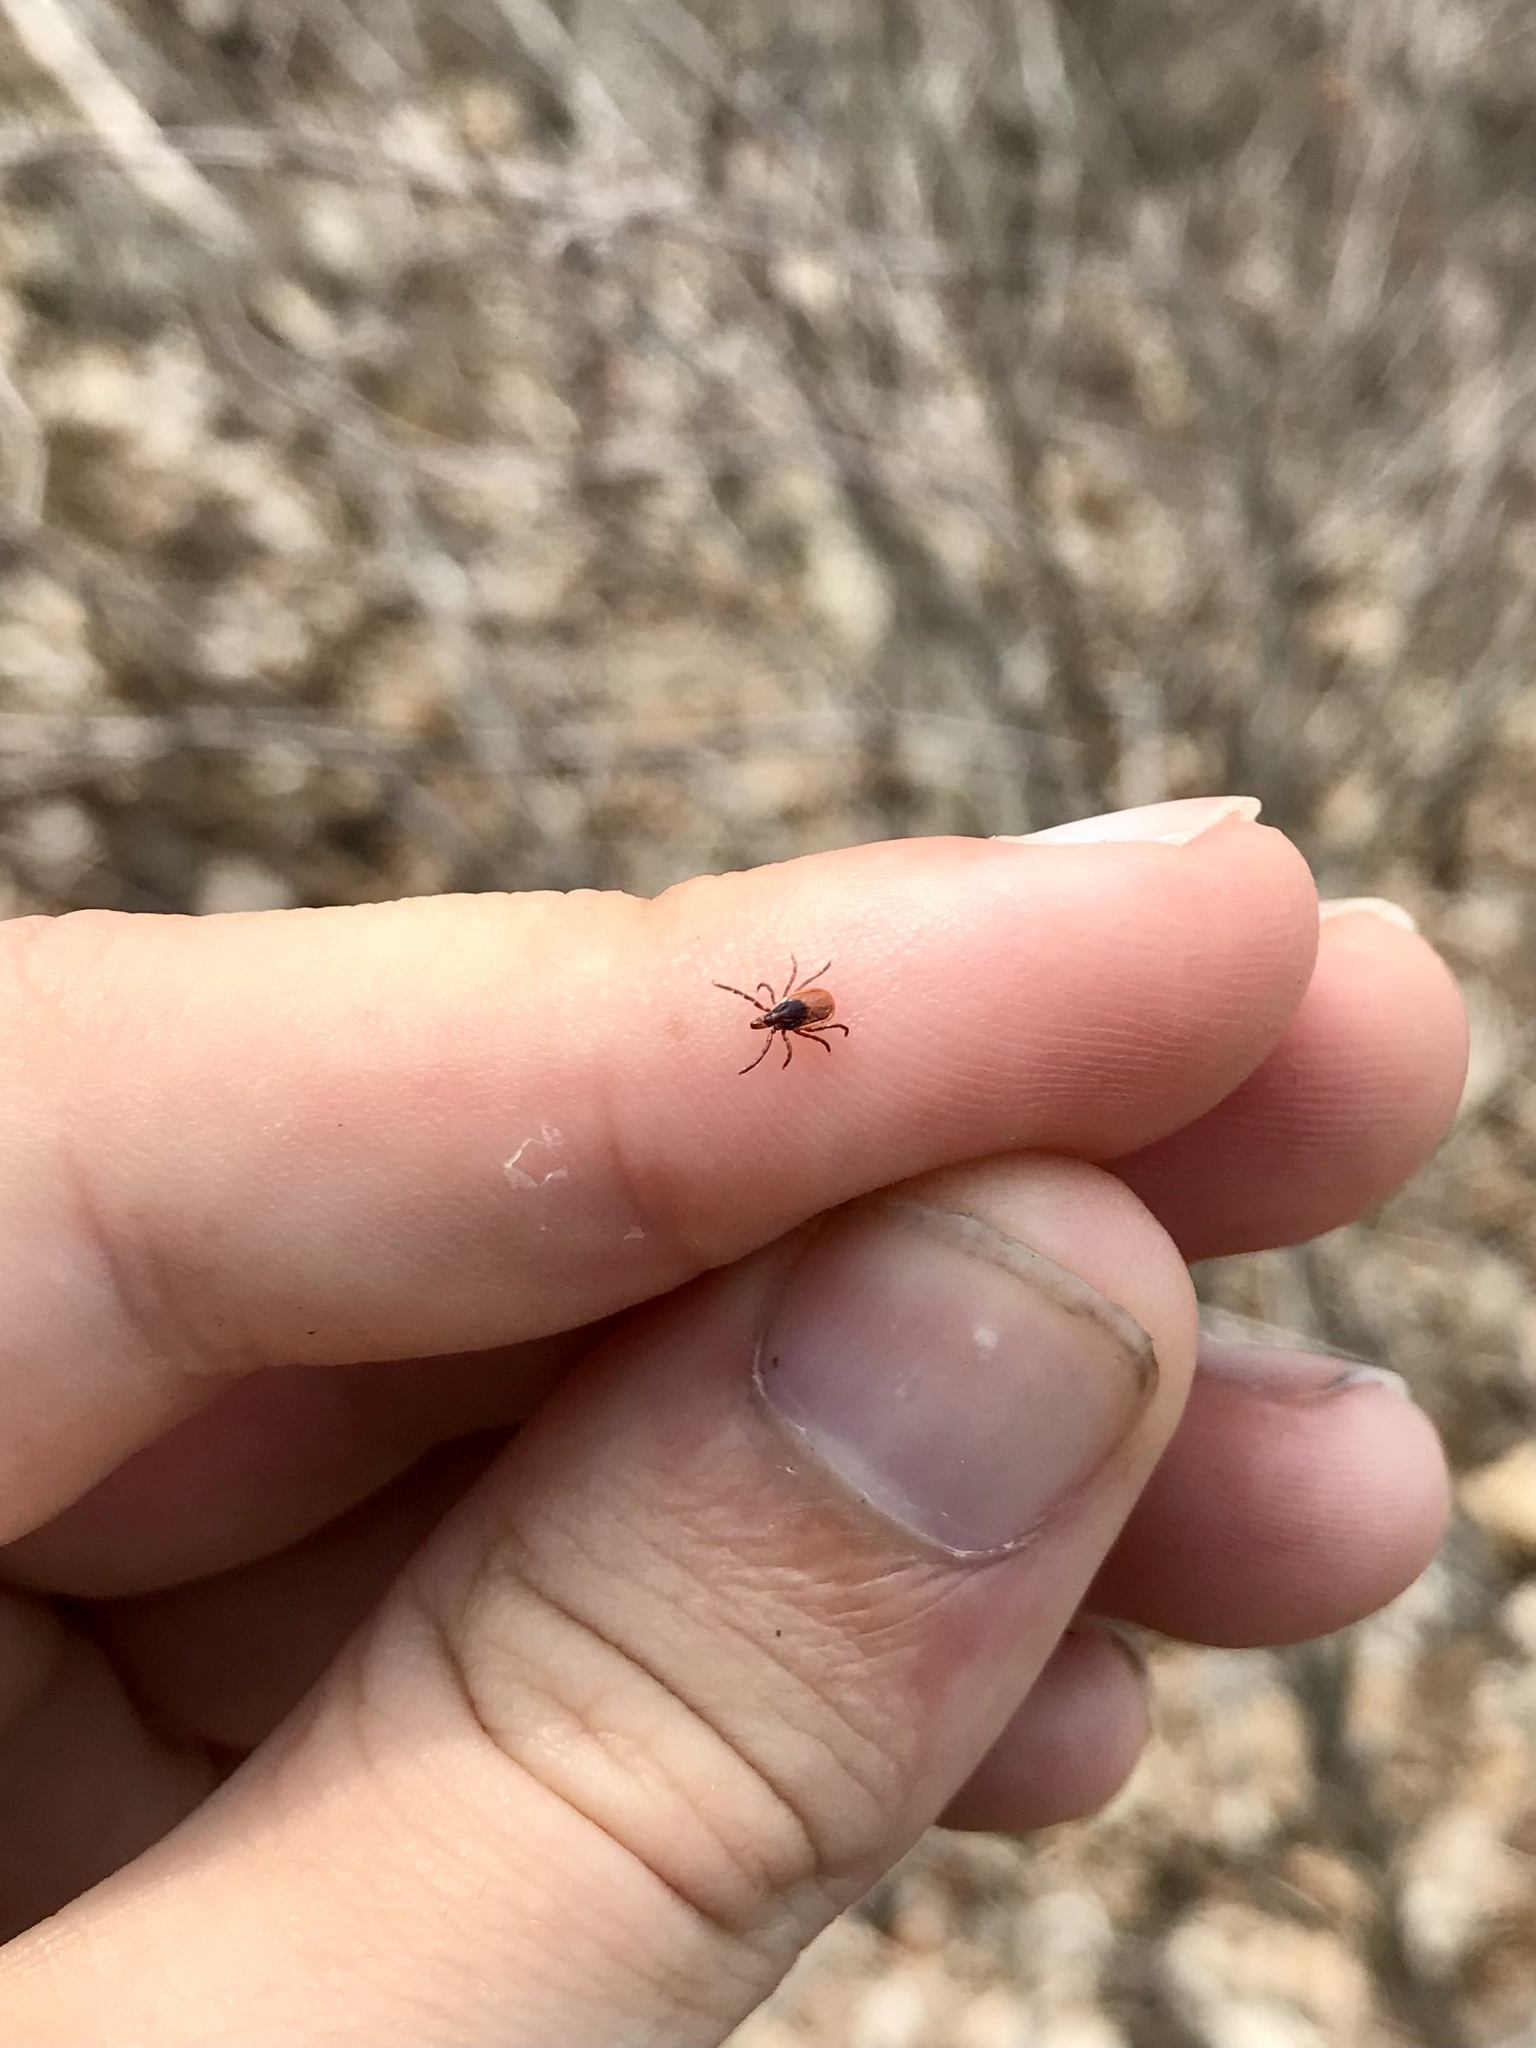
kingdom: Animalia
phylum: Arthropoda
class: Arachnida
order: Ixodida
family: Ixodidae
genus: Ixodes
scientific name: Ixodes scapularis
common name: Black legged tick
